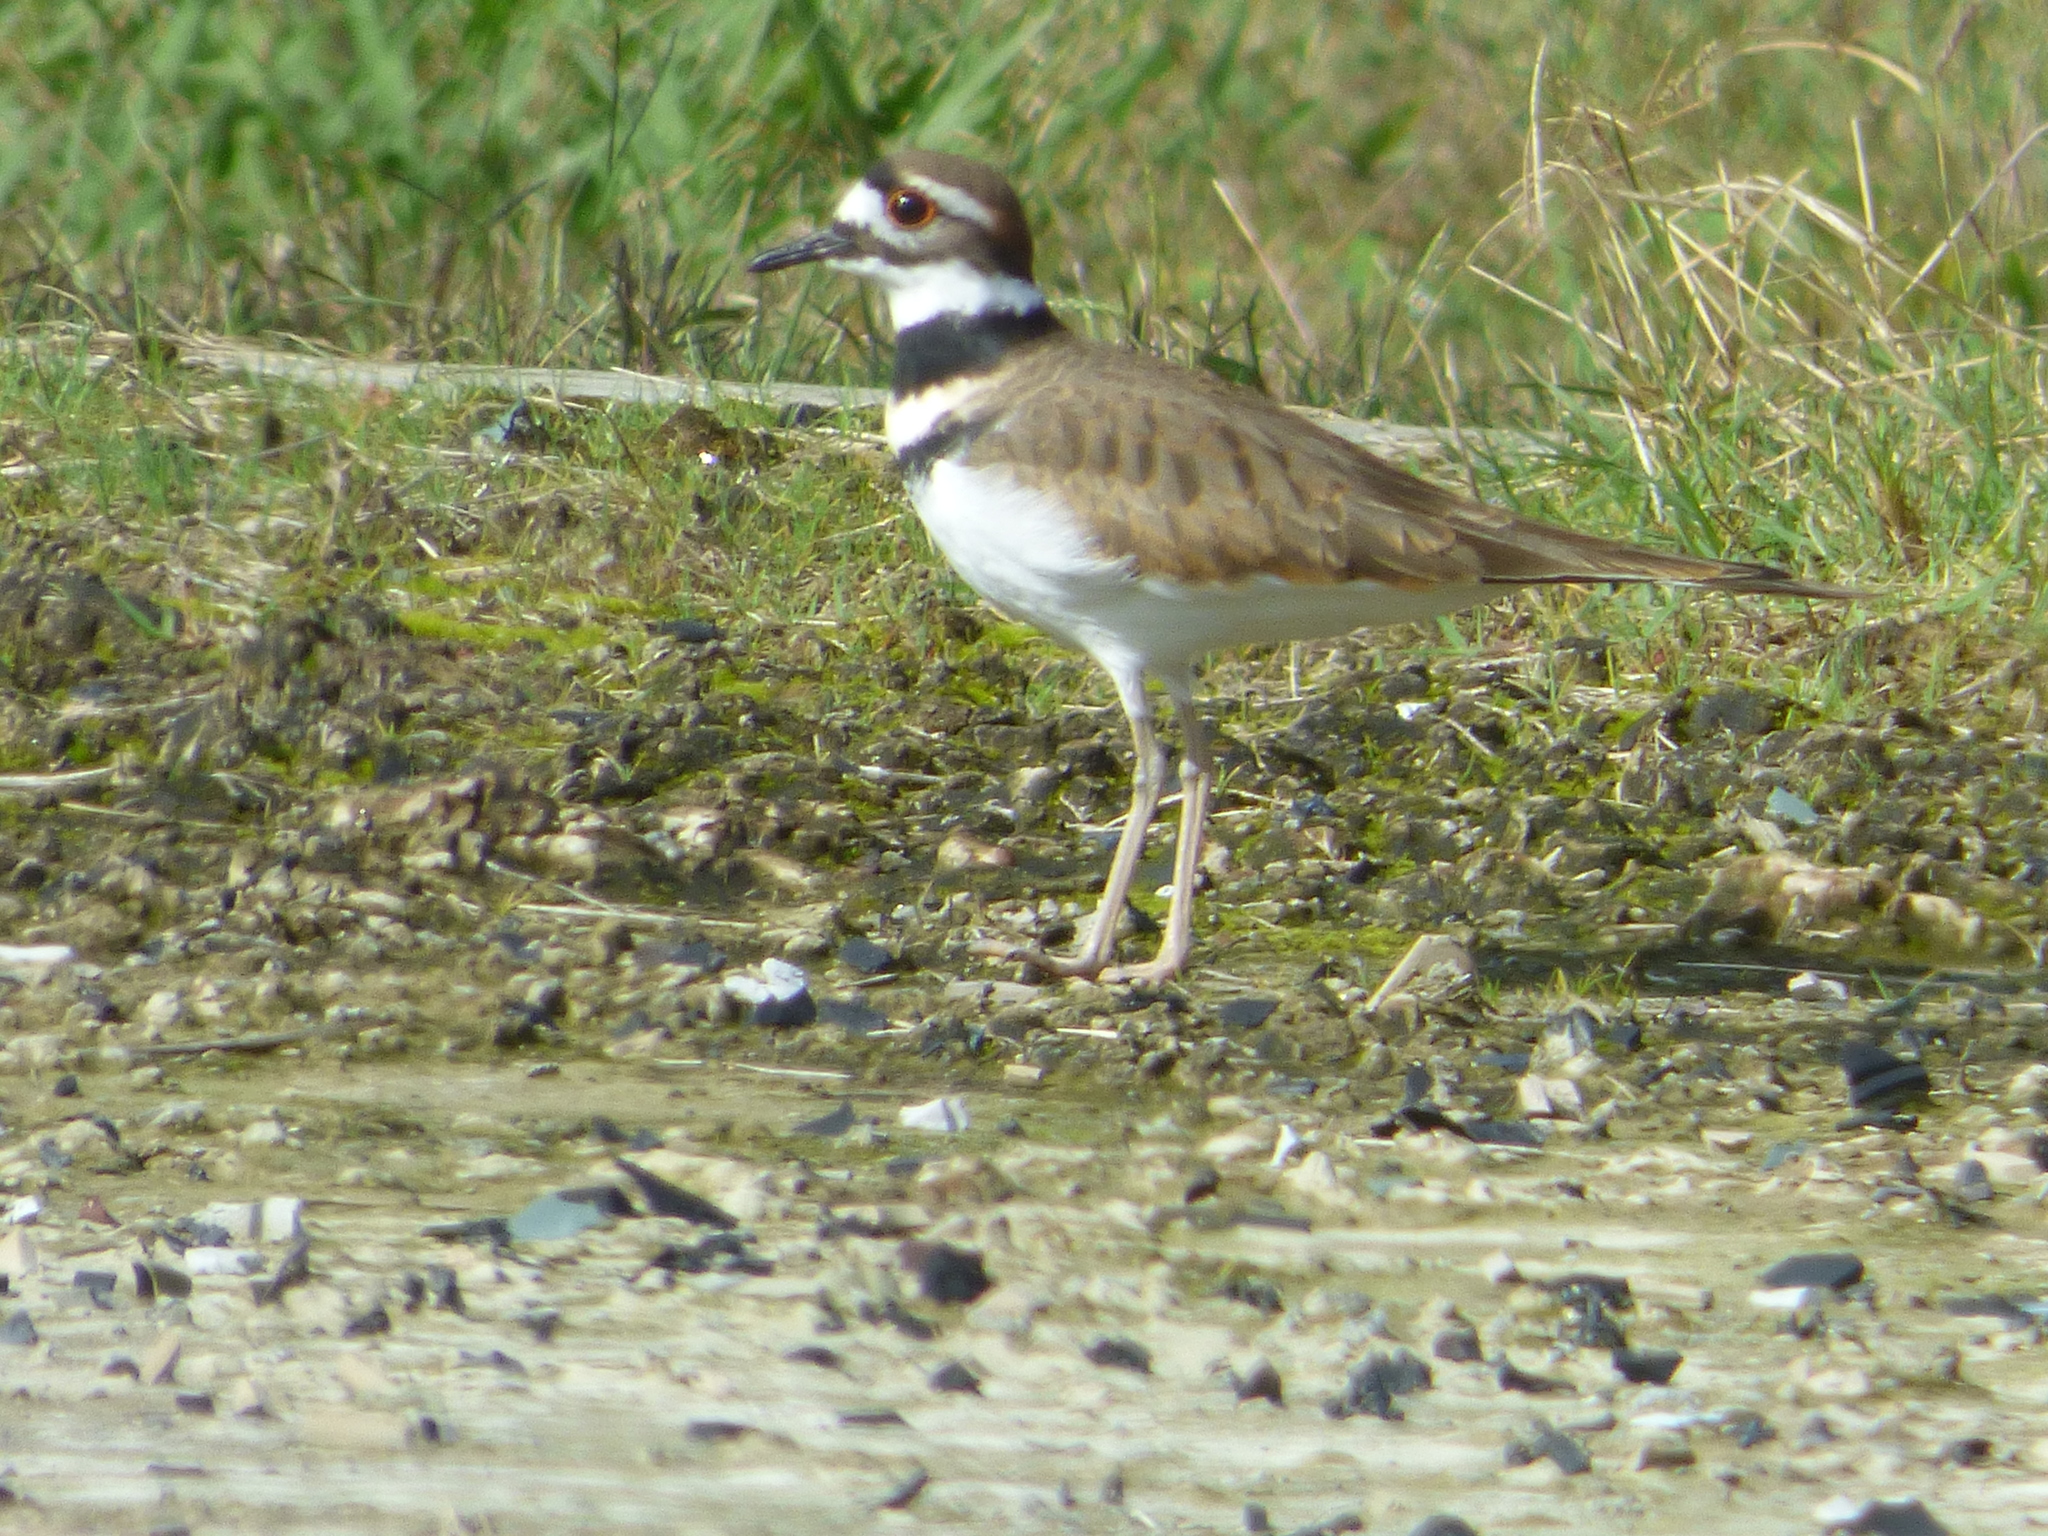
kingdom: Animalia
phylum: Chordata
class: Aves
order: Charadriiformes
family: Charadriidae
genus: Charadrius
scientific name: Charadrius vociferus
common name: Killdeer
